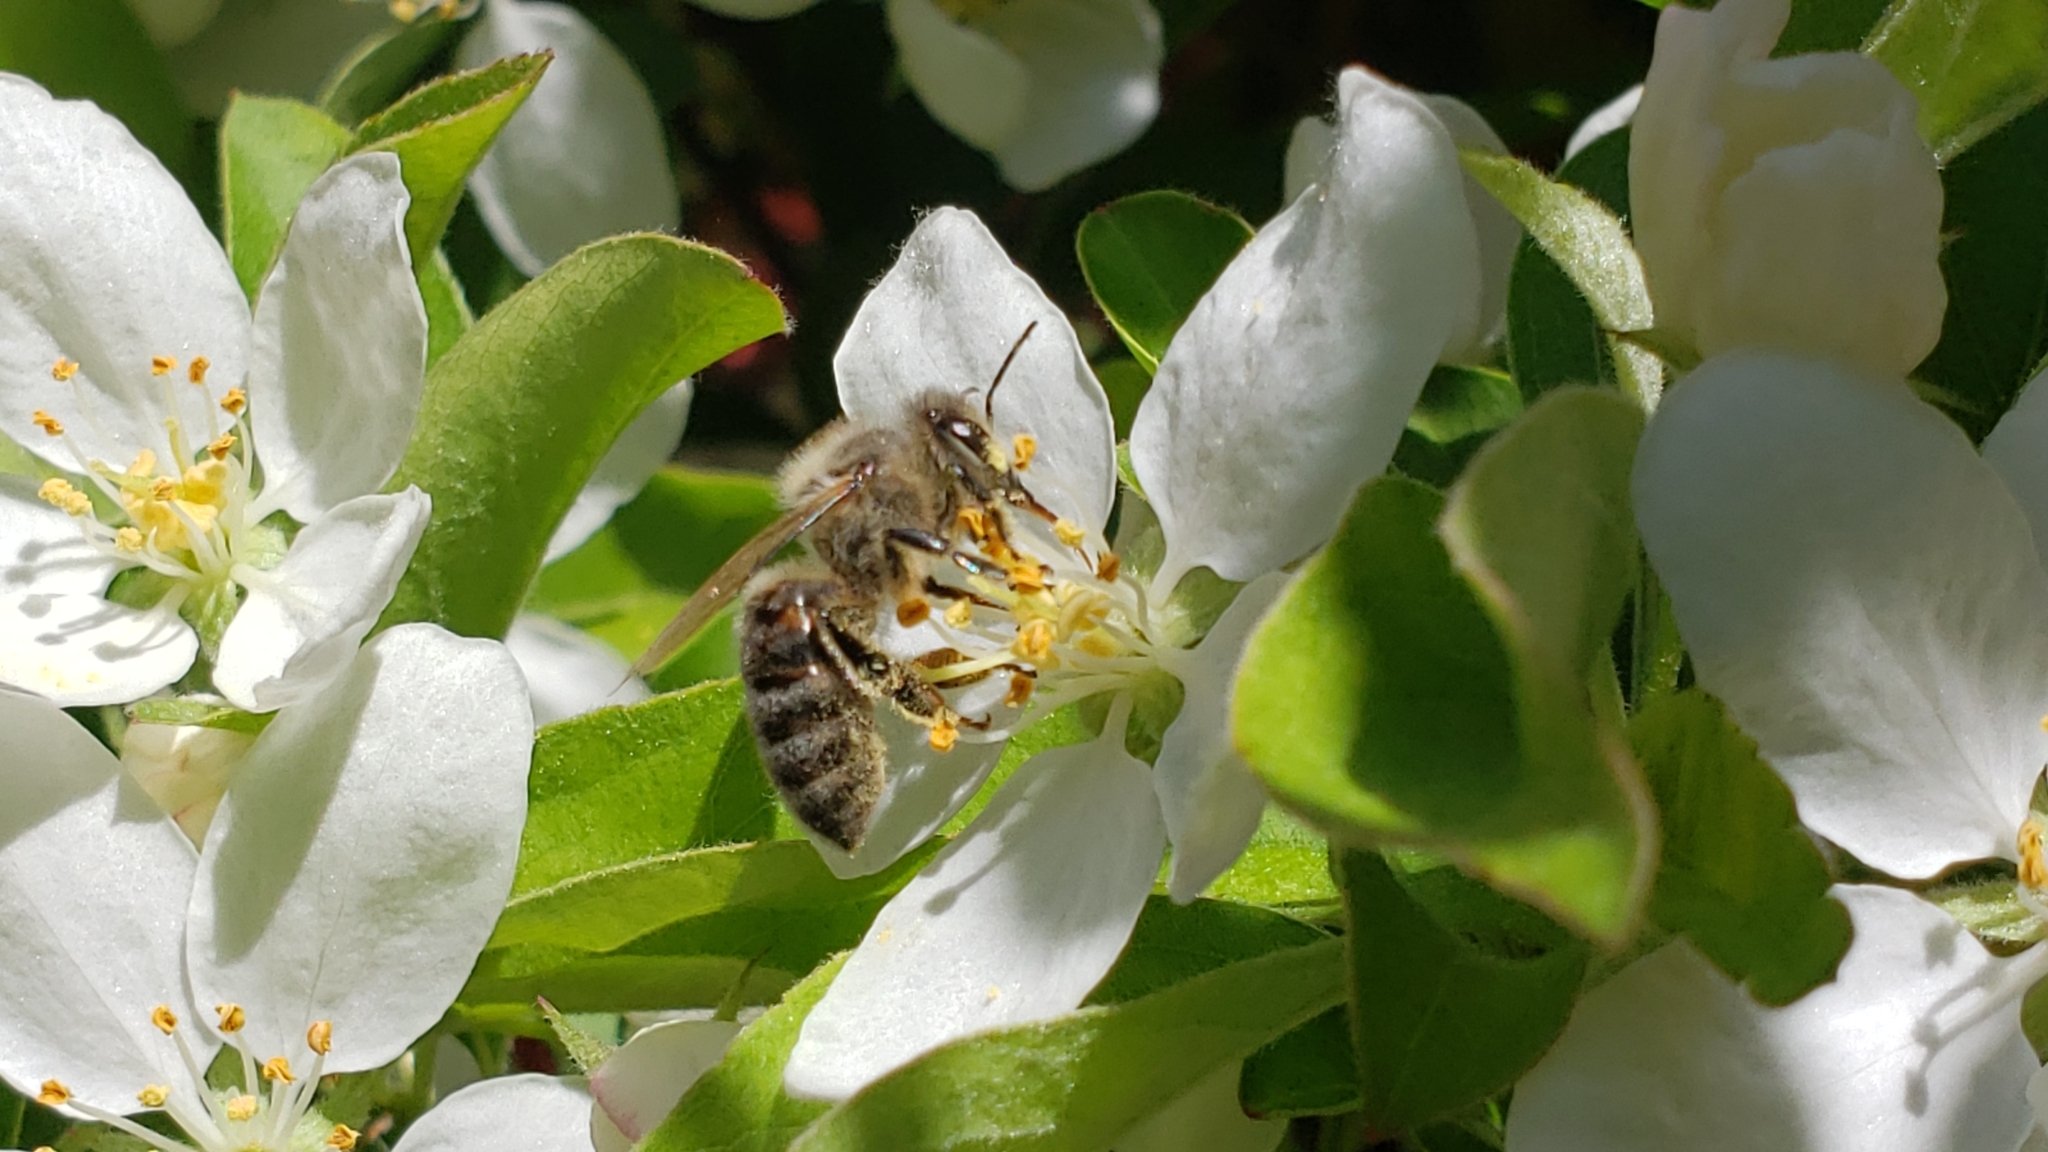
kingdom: Animalia
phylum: Arthropoda
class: Insecta
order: Hymenoptera
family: Apidae
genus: Apis
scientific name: Apis mellifera
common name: Honey bee
